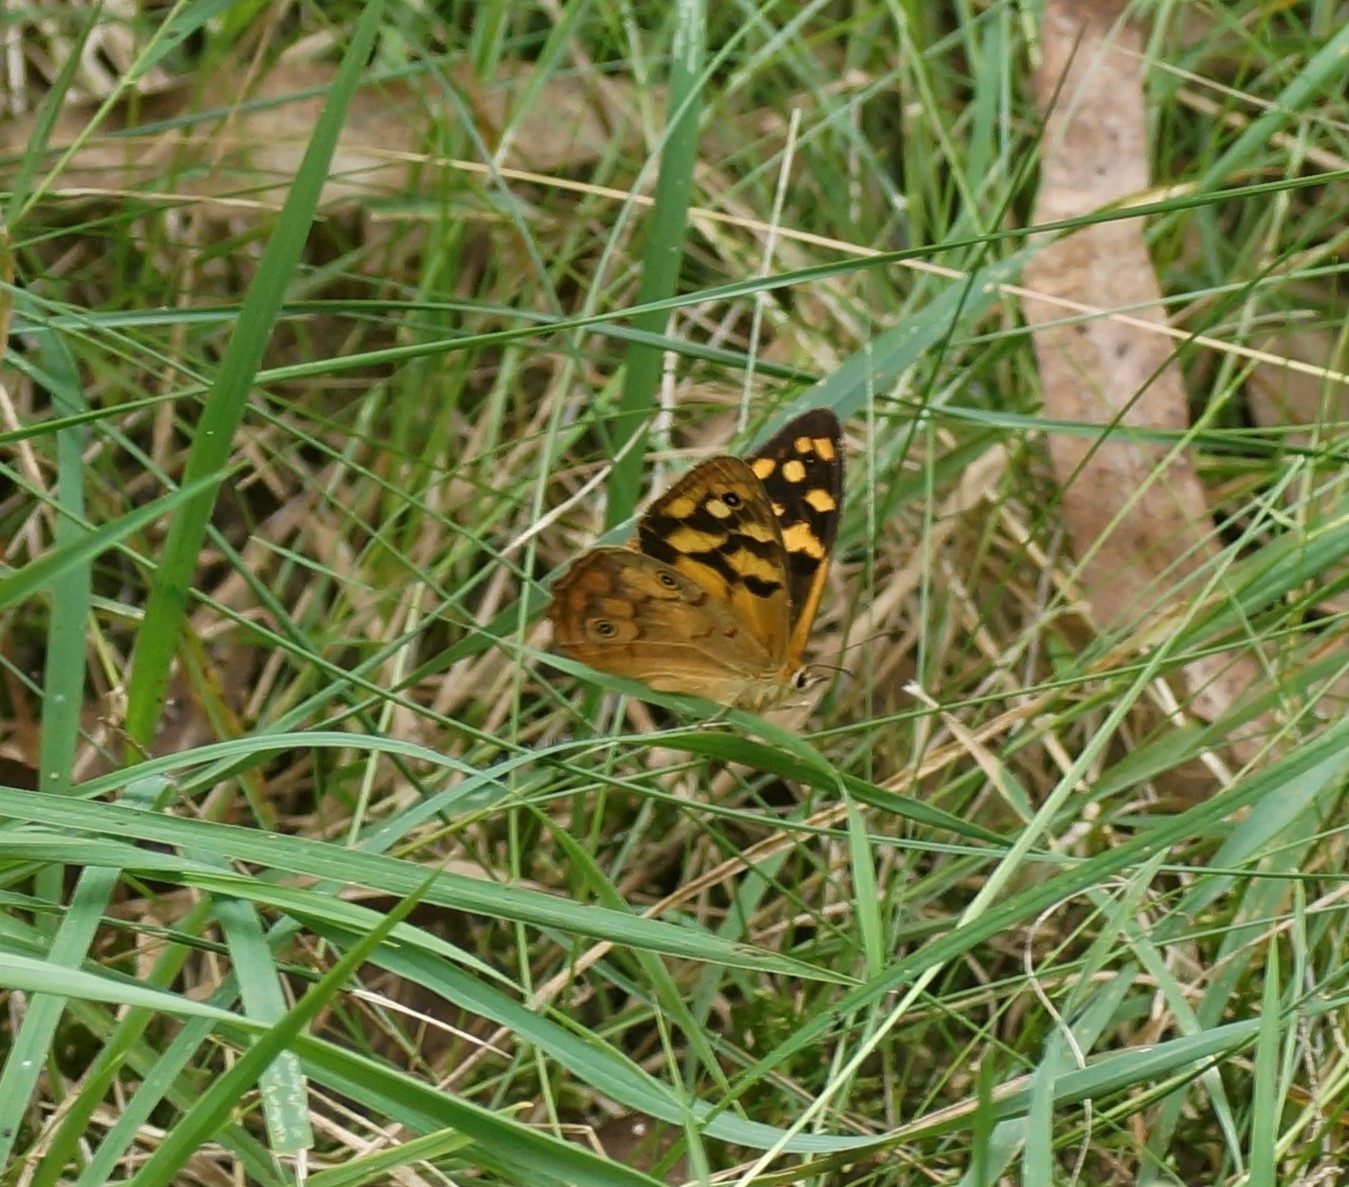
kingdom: Animalia
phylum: Arthropoda
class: Insecta
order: Lepidoptera
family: Nymphalidae
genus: Heteronympha
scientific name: Heteronympha paradelpha
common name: Spotted brown
